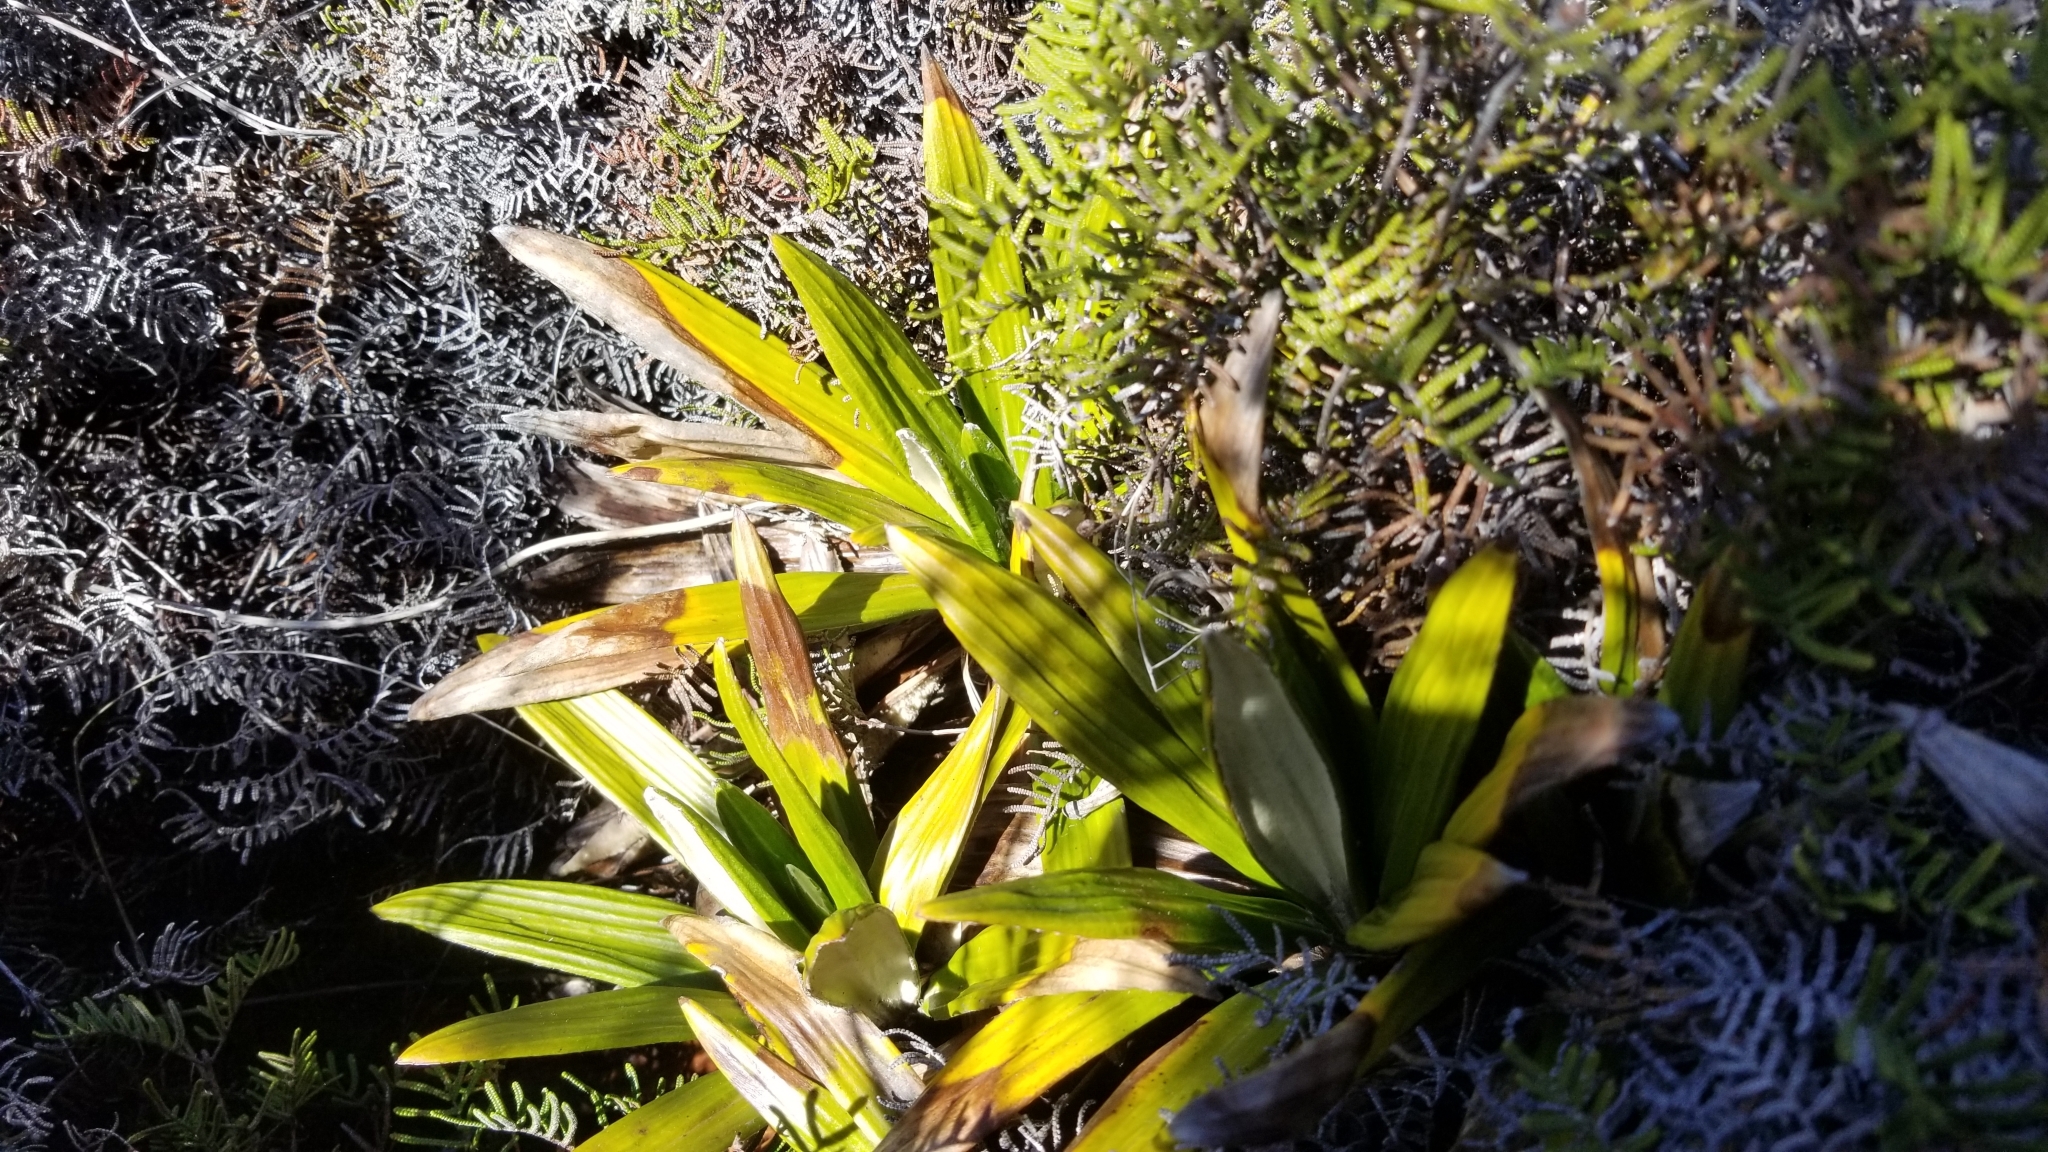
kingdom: Plantae
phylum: Tracheophyta
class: Magnoliopsida
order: Asterales
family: Asteraceae
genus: Celmisia
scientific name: Celmisia spectabilis
